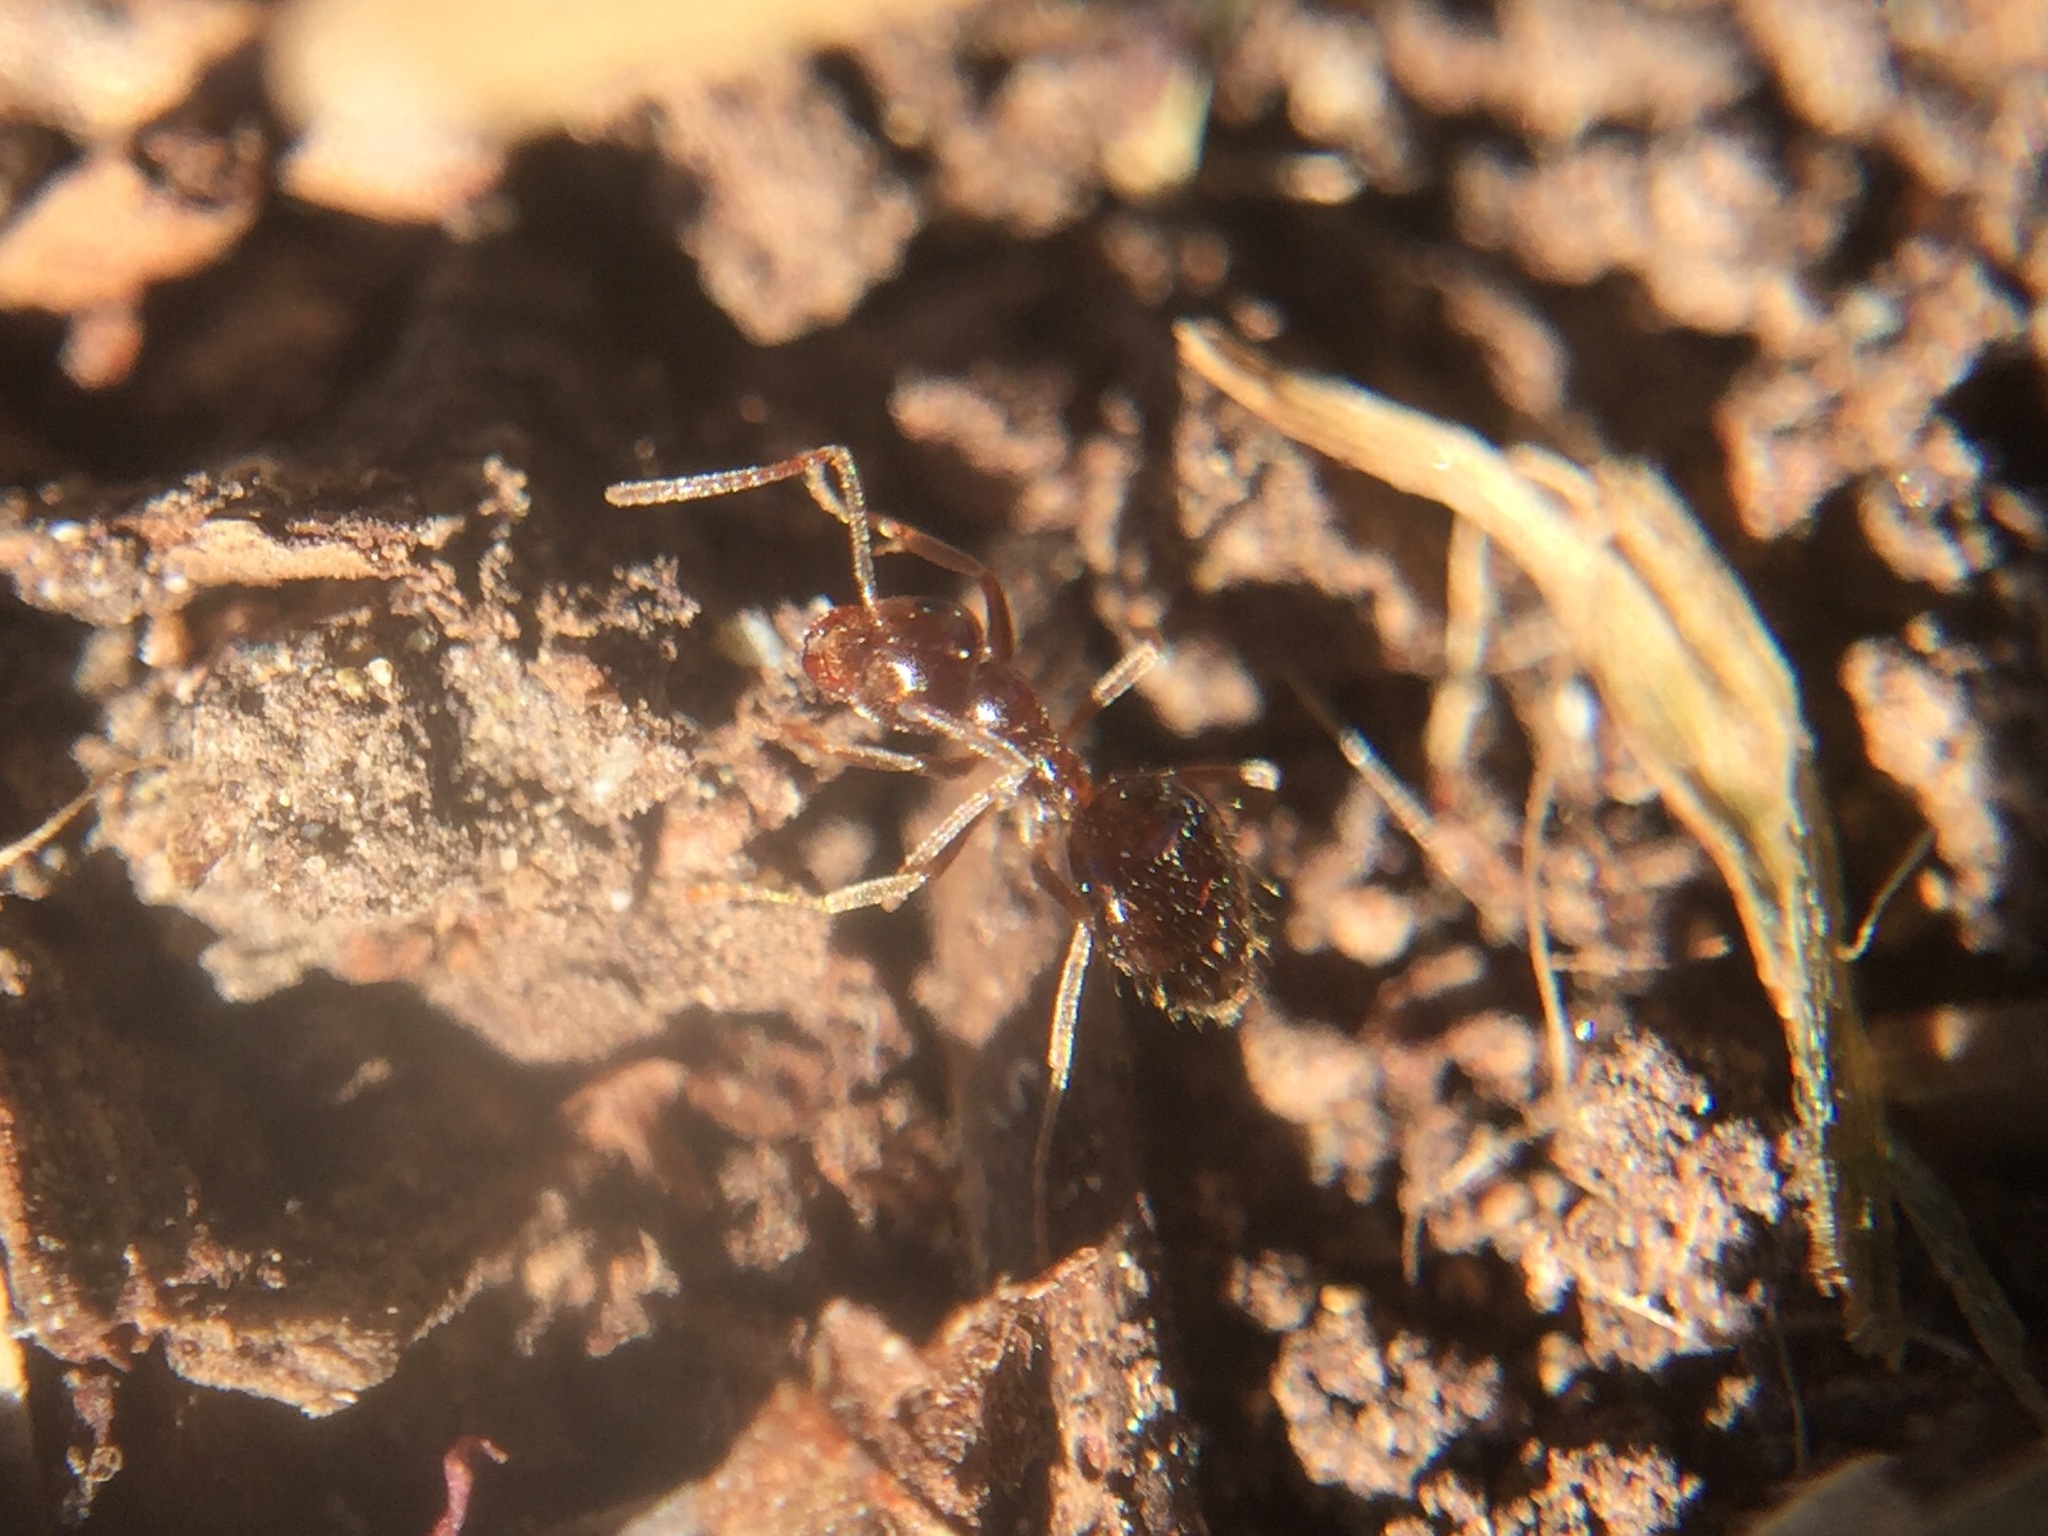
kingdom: Animalia
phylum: Arthropoda
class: Insecta
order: Hymenoptera
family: Formicidae
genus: Prenolepis
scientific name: Prenolepis imparis
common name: Small honey ant
